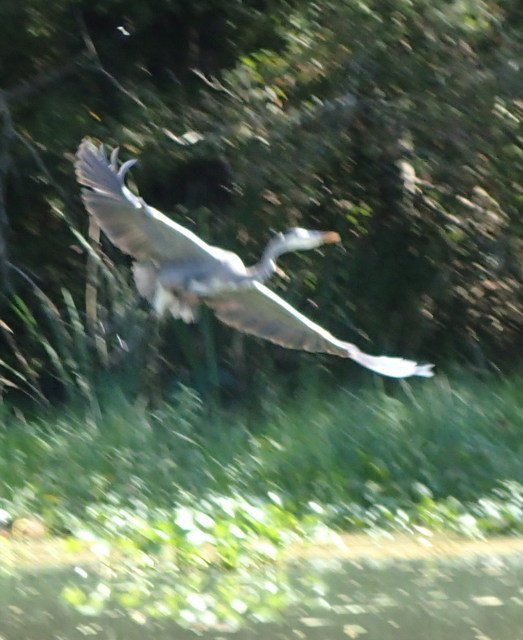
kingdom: Animalia
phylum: Chordata
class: Aves
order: Pelecaniformes
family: Ardeidae
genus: Ardea
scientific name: Ardea herodias
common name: Great blue heron
